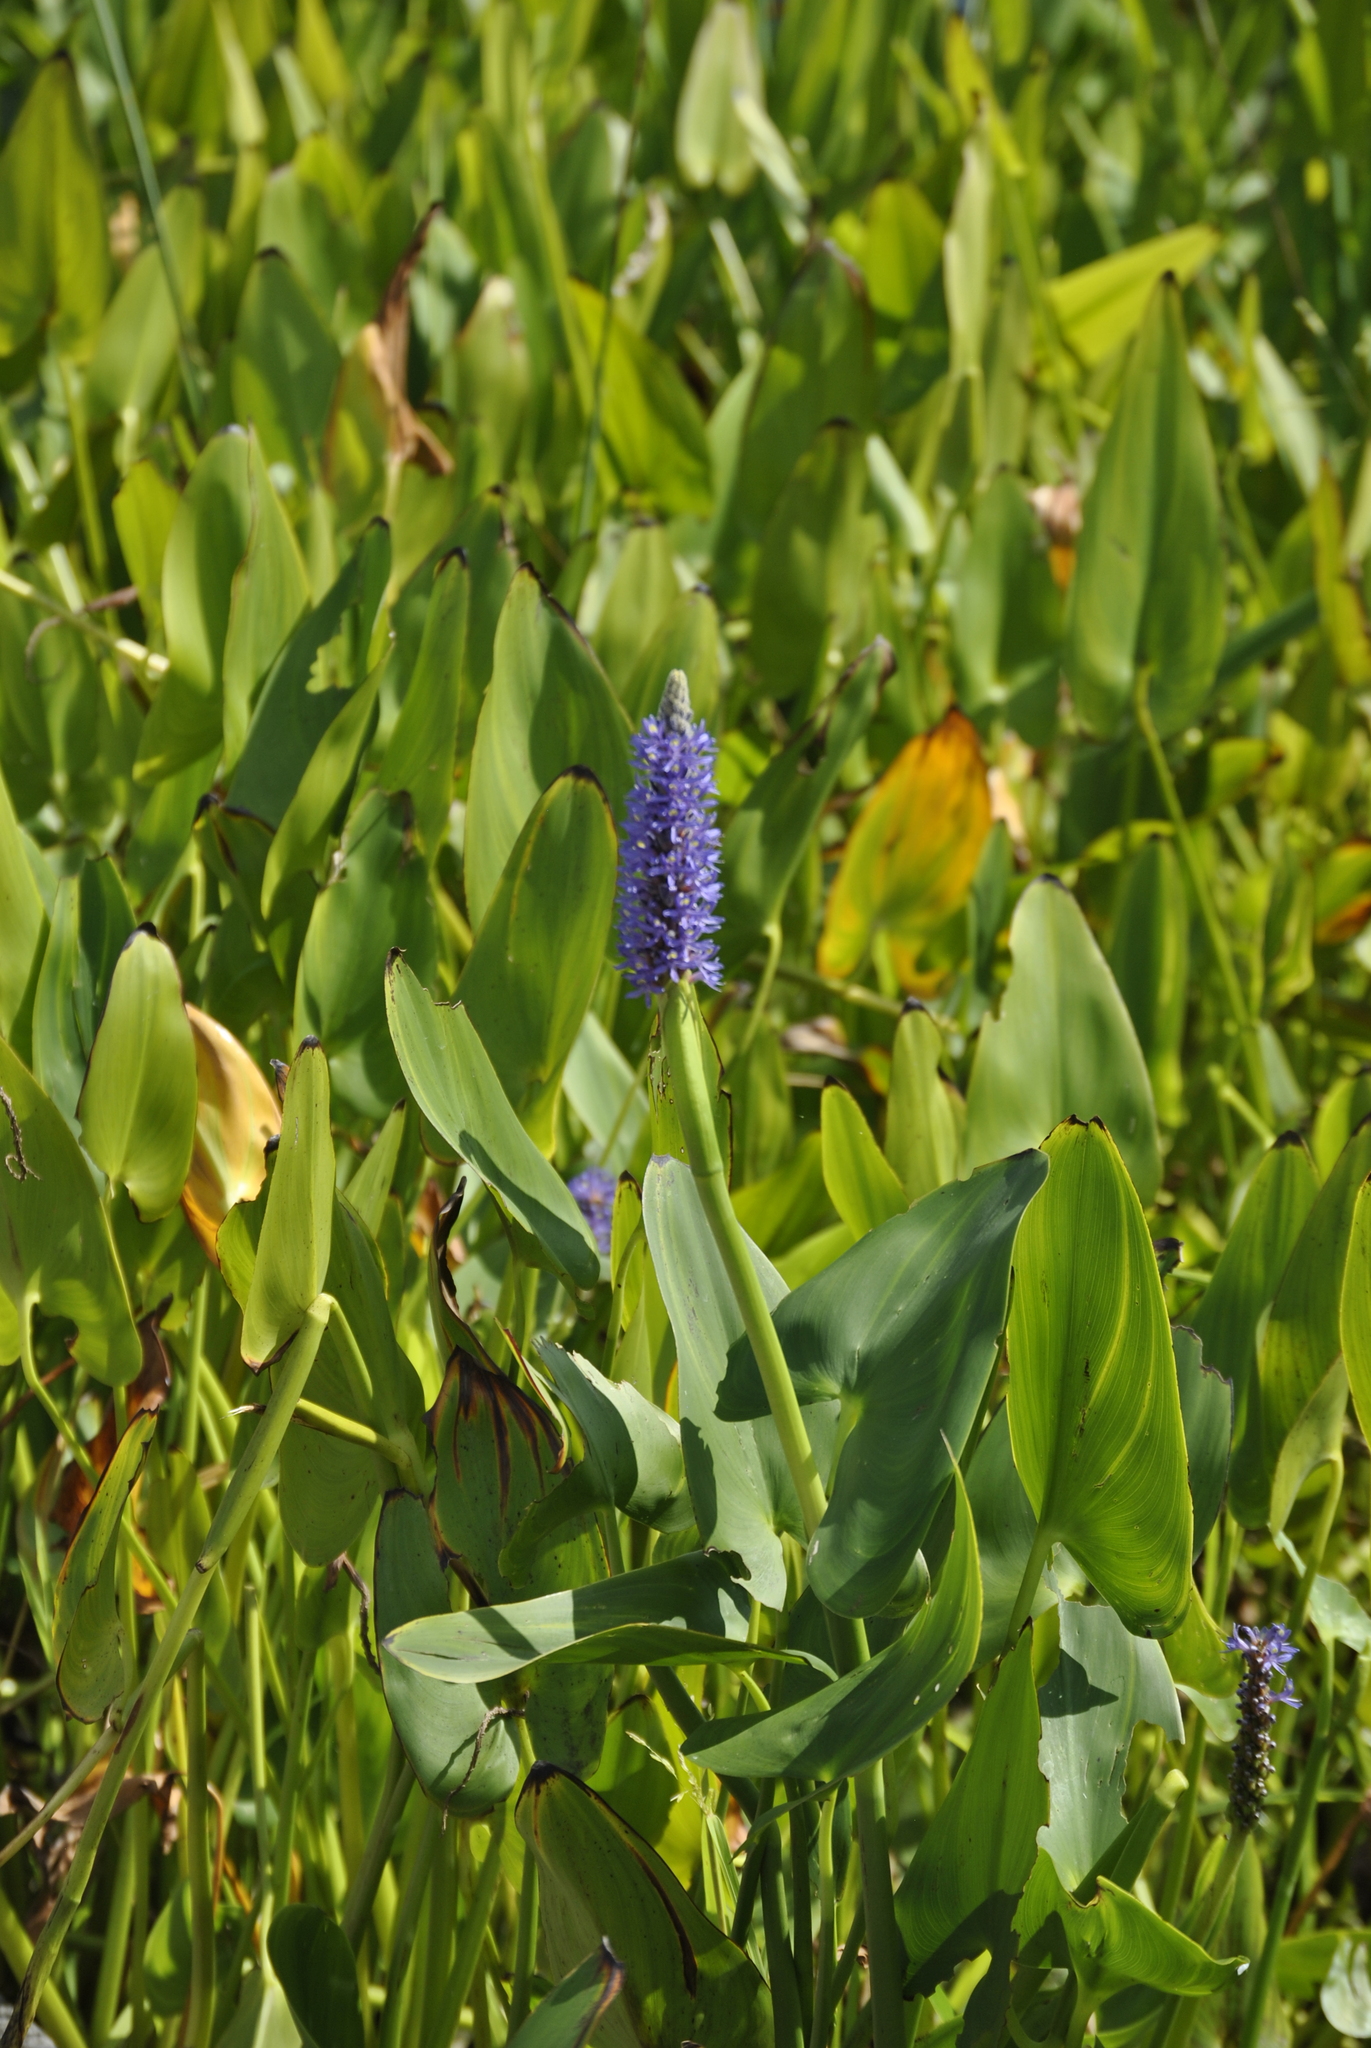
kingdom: Plantae
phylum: Tracheophyta
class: Liliopsida
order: Commelinales
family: Pontederiaceae
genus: Pontederia
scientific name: Pontederia cordata
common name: Pickerelweed
